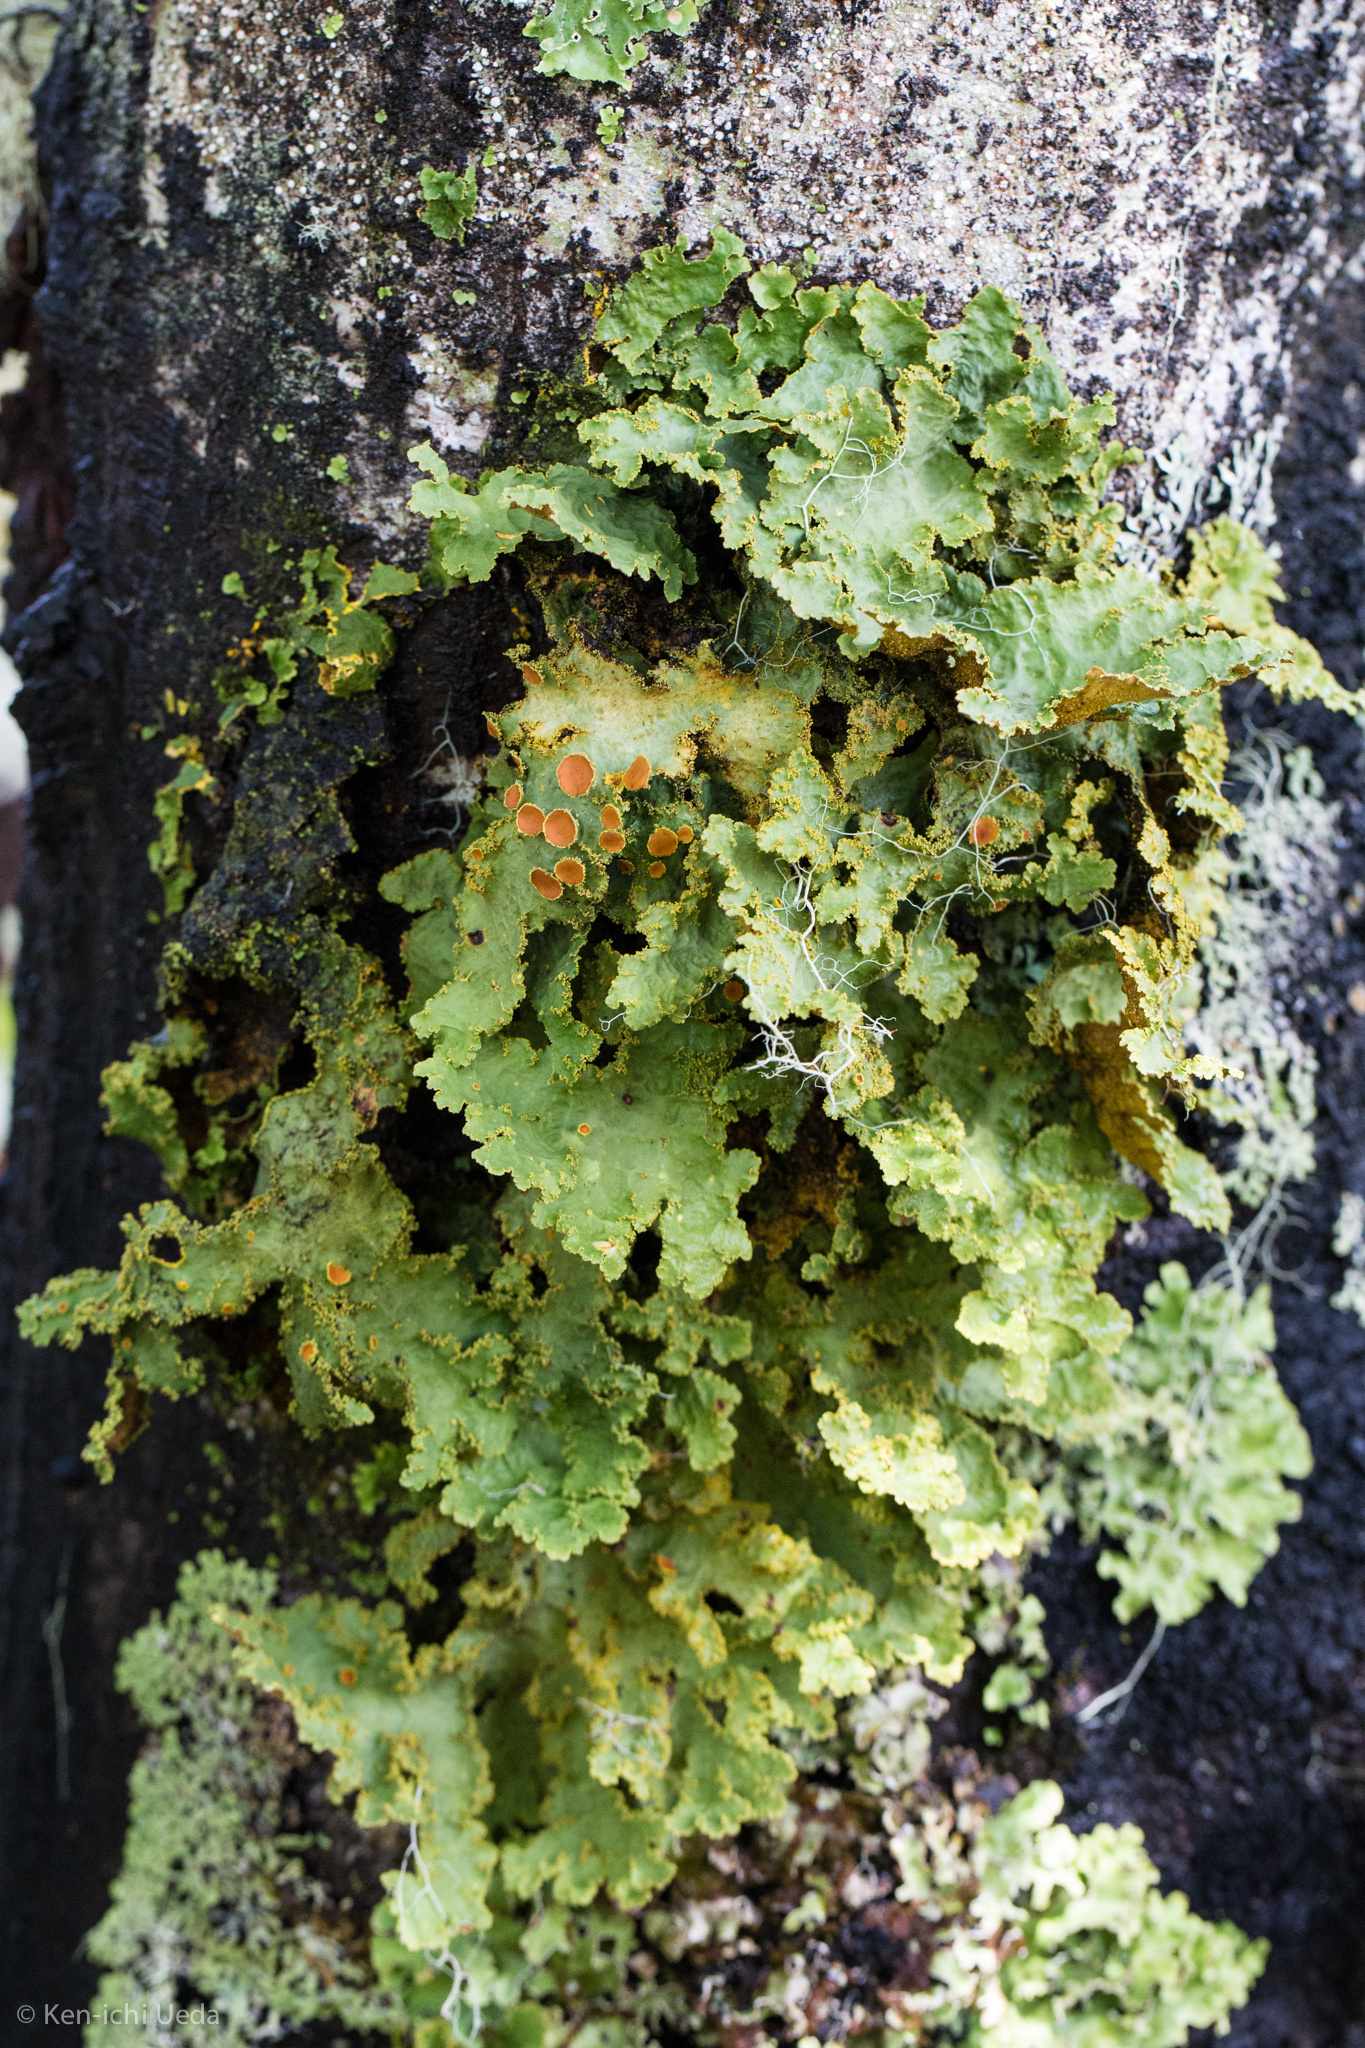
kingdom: Fungi
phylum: Ascomycota
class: Lecanoromycetes
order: Peltigerales
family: Lobariaceae
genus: Yarrumia
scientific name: Yarrumia colensoi
